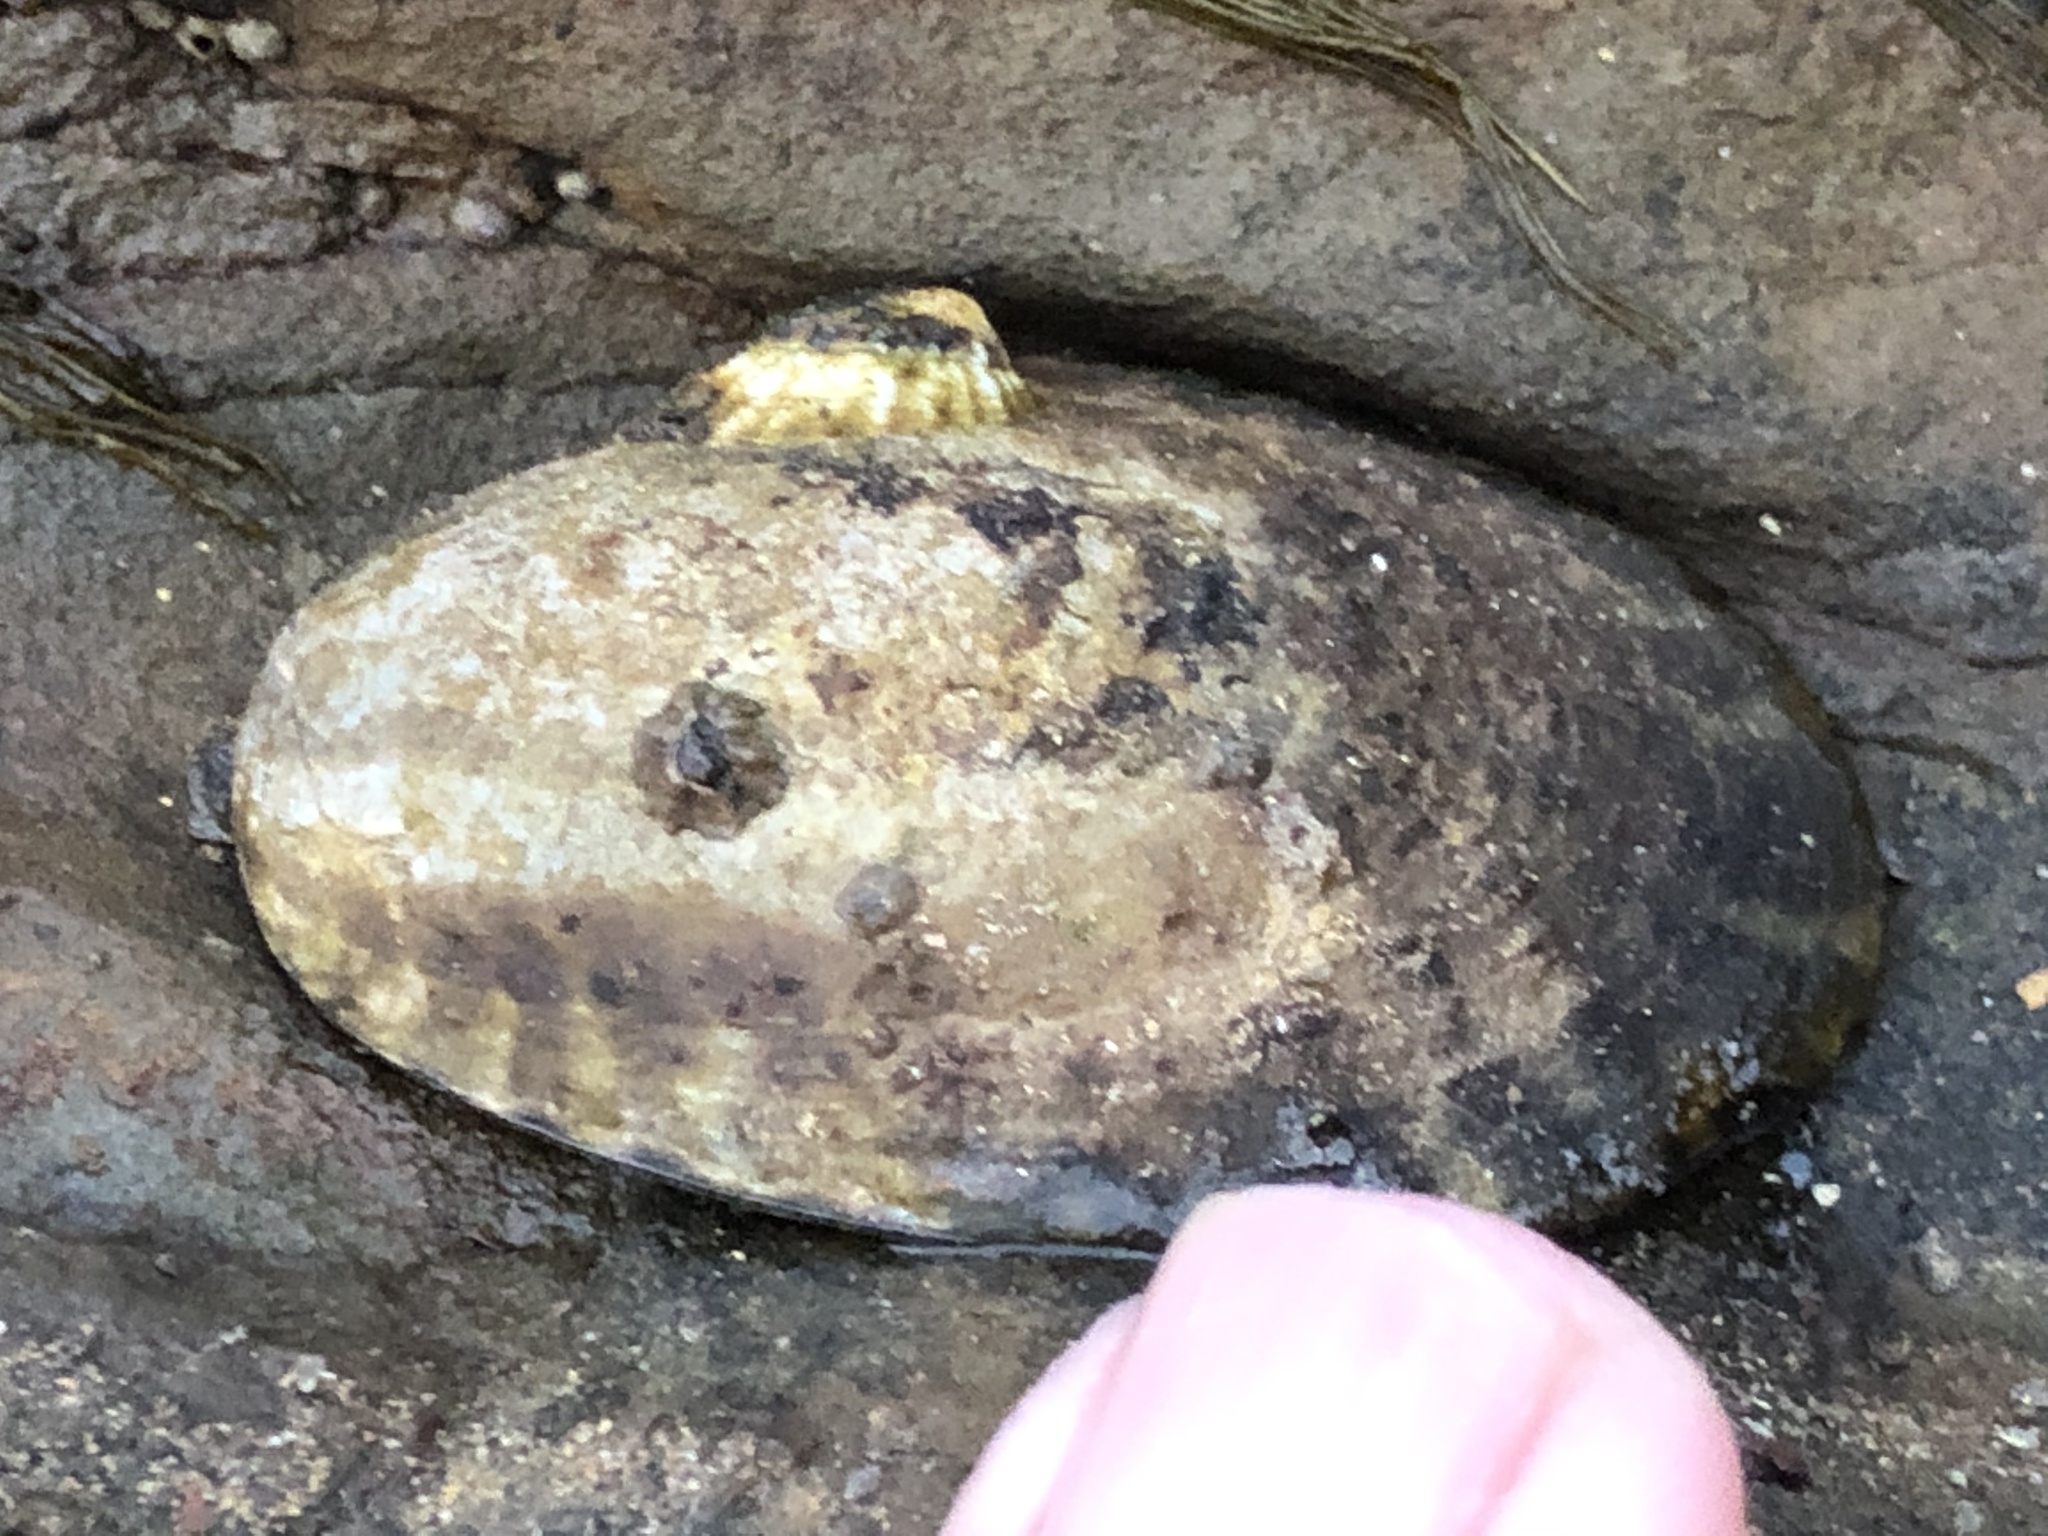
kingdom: Animalia
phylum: Mollusca
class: Gastropoda
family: Lottiidae
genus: Lottia
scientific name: Lottia gigantea
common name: Owl limpet
